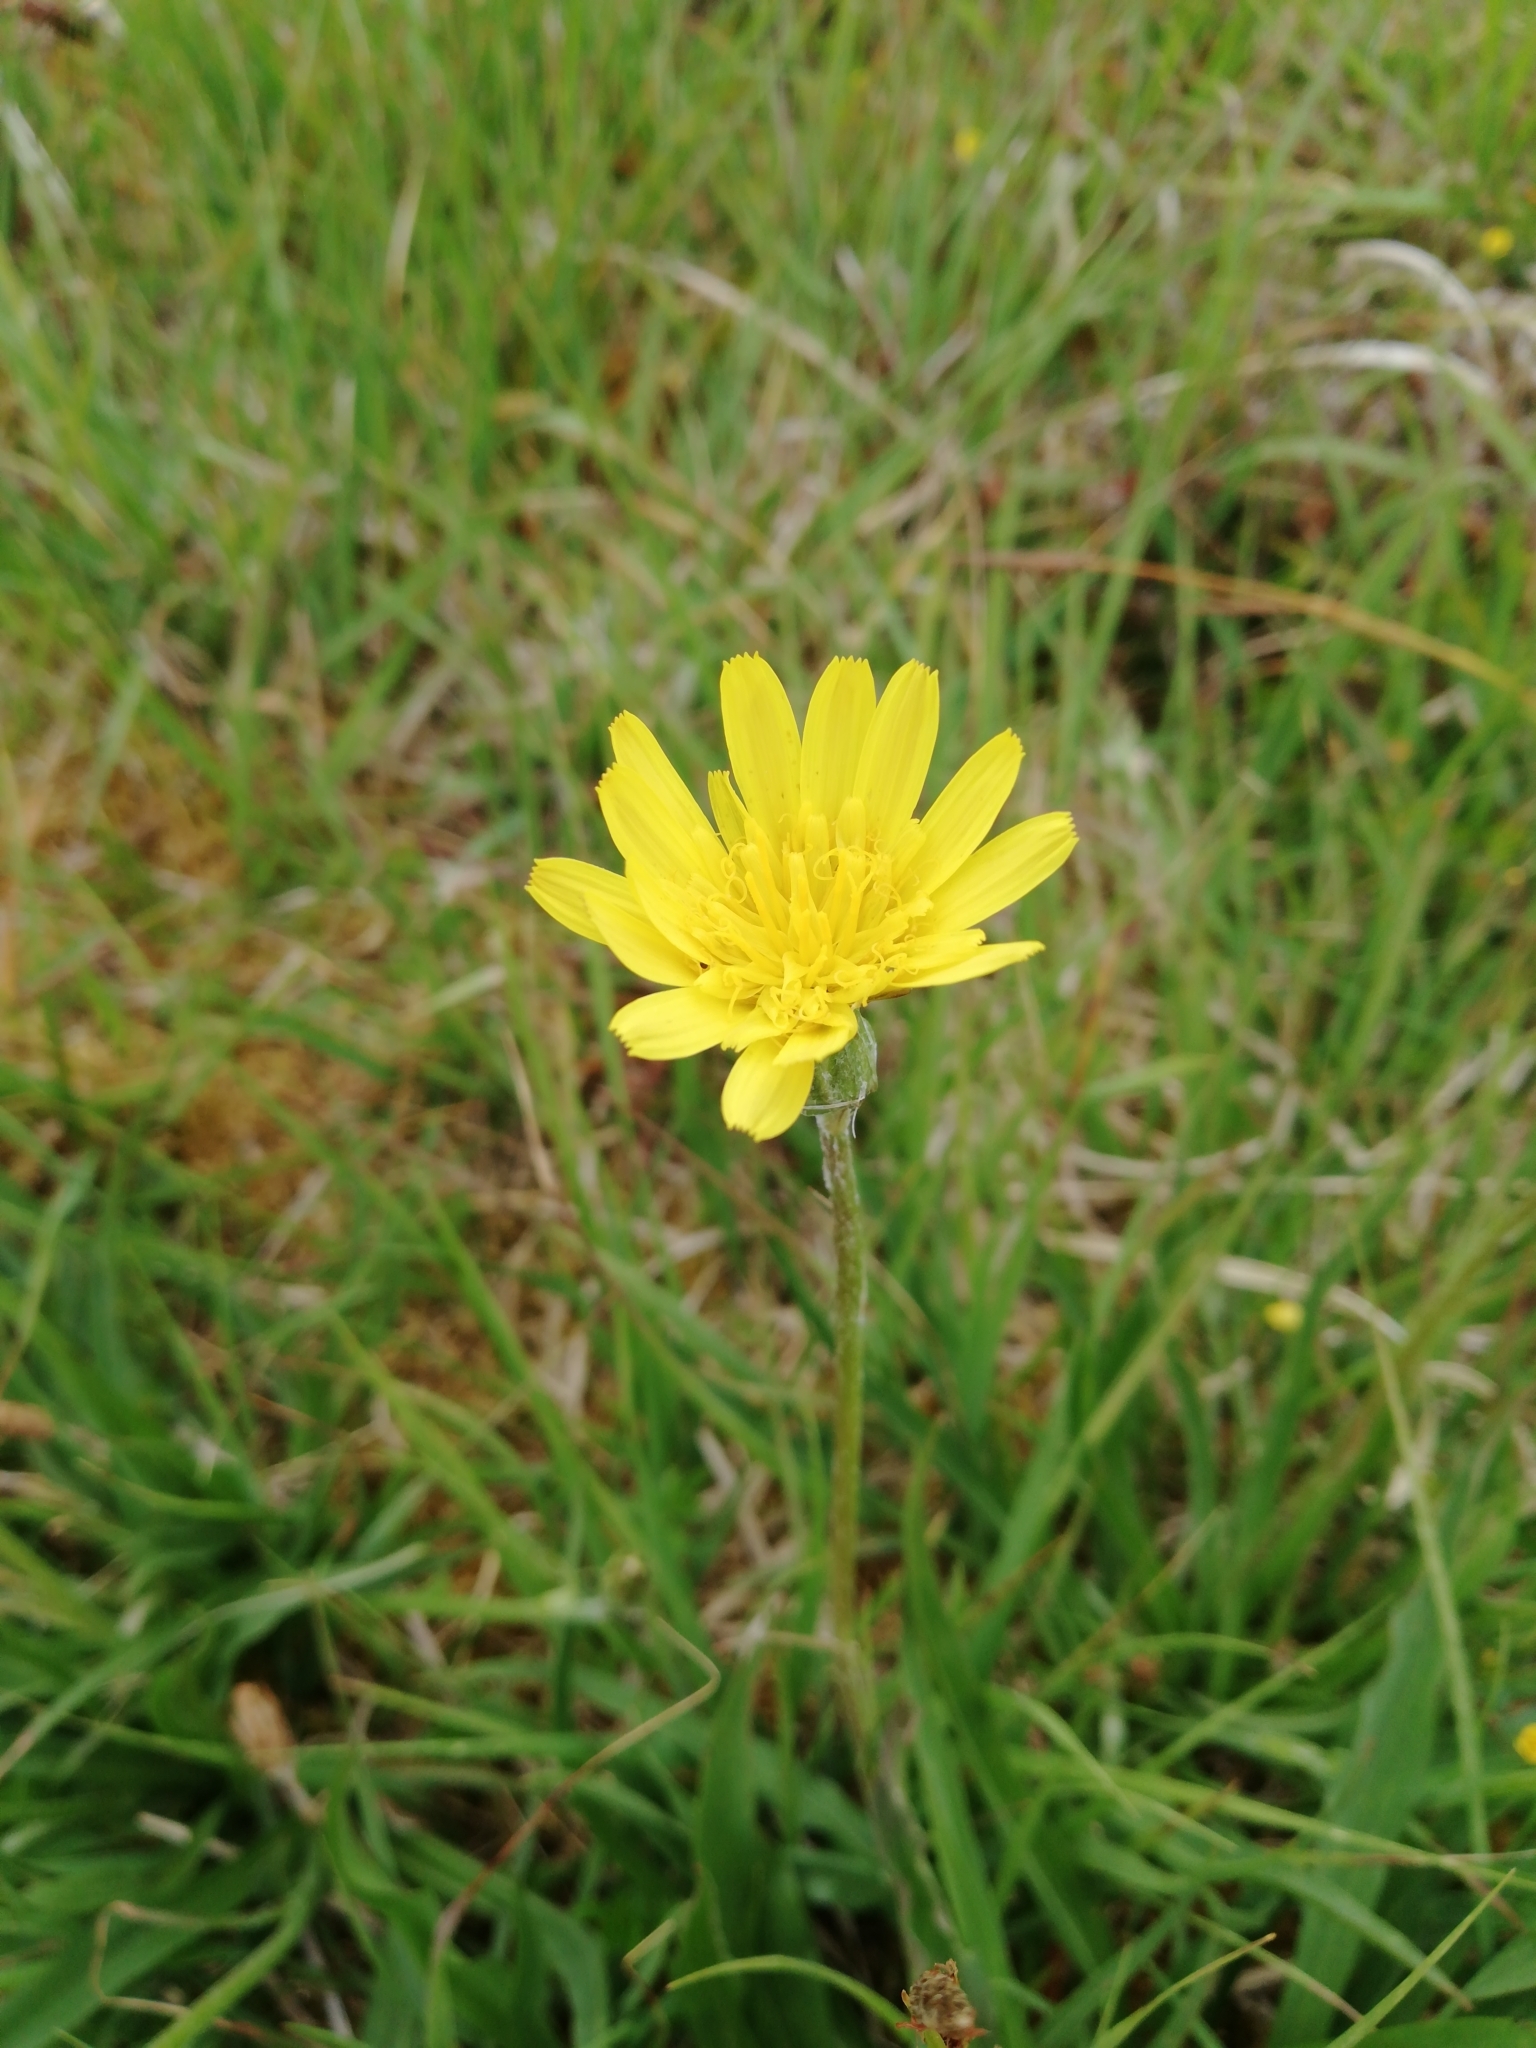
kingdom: Plantae
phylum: Tracheophyta
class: Magnoliopsida
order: Asterales
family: Asteraceae
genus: Scorzonera
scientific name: Scorzonera humilis
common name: Viper's-grass
